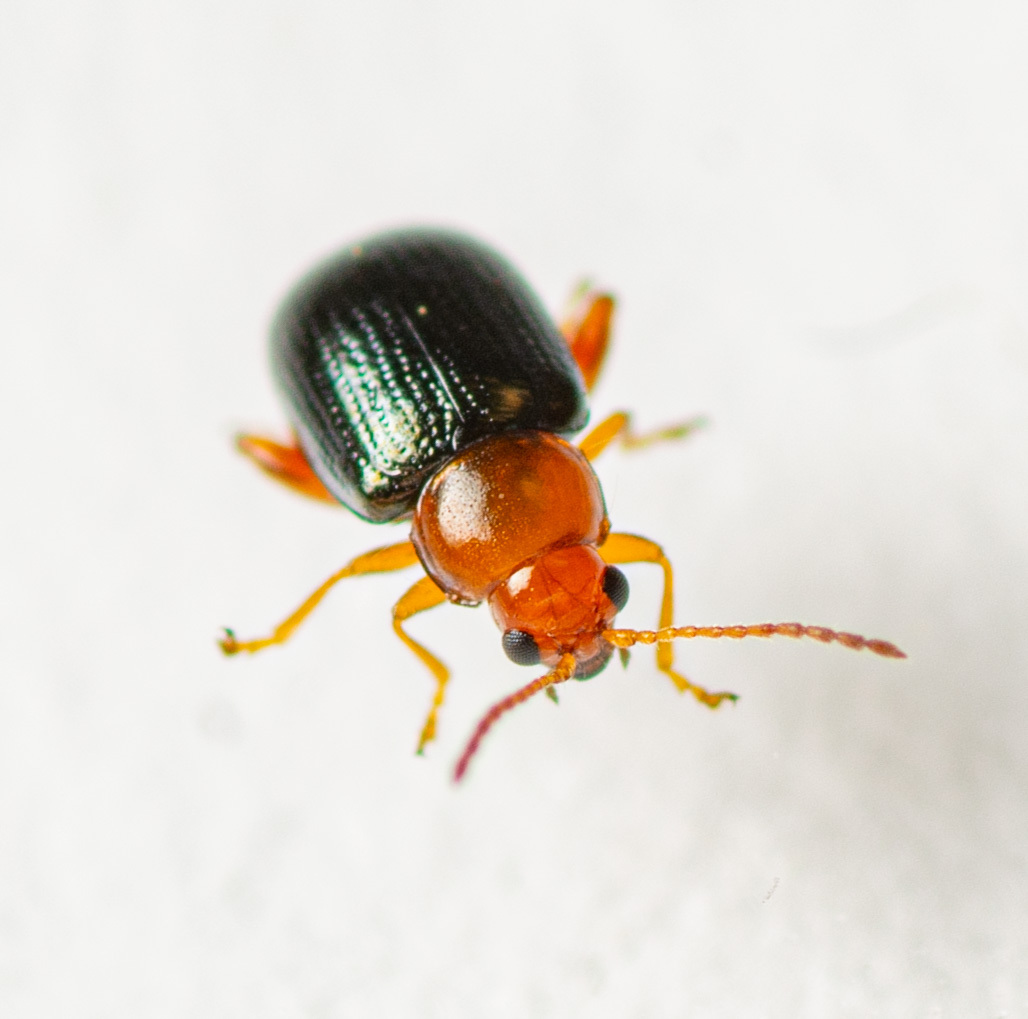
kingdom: Animalia
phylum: Arthropoda
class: Insecta
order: Coleoptera
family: Chrysomelidae
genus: Glyptina
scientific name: Glyptina cyanipennis
